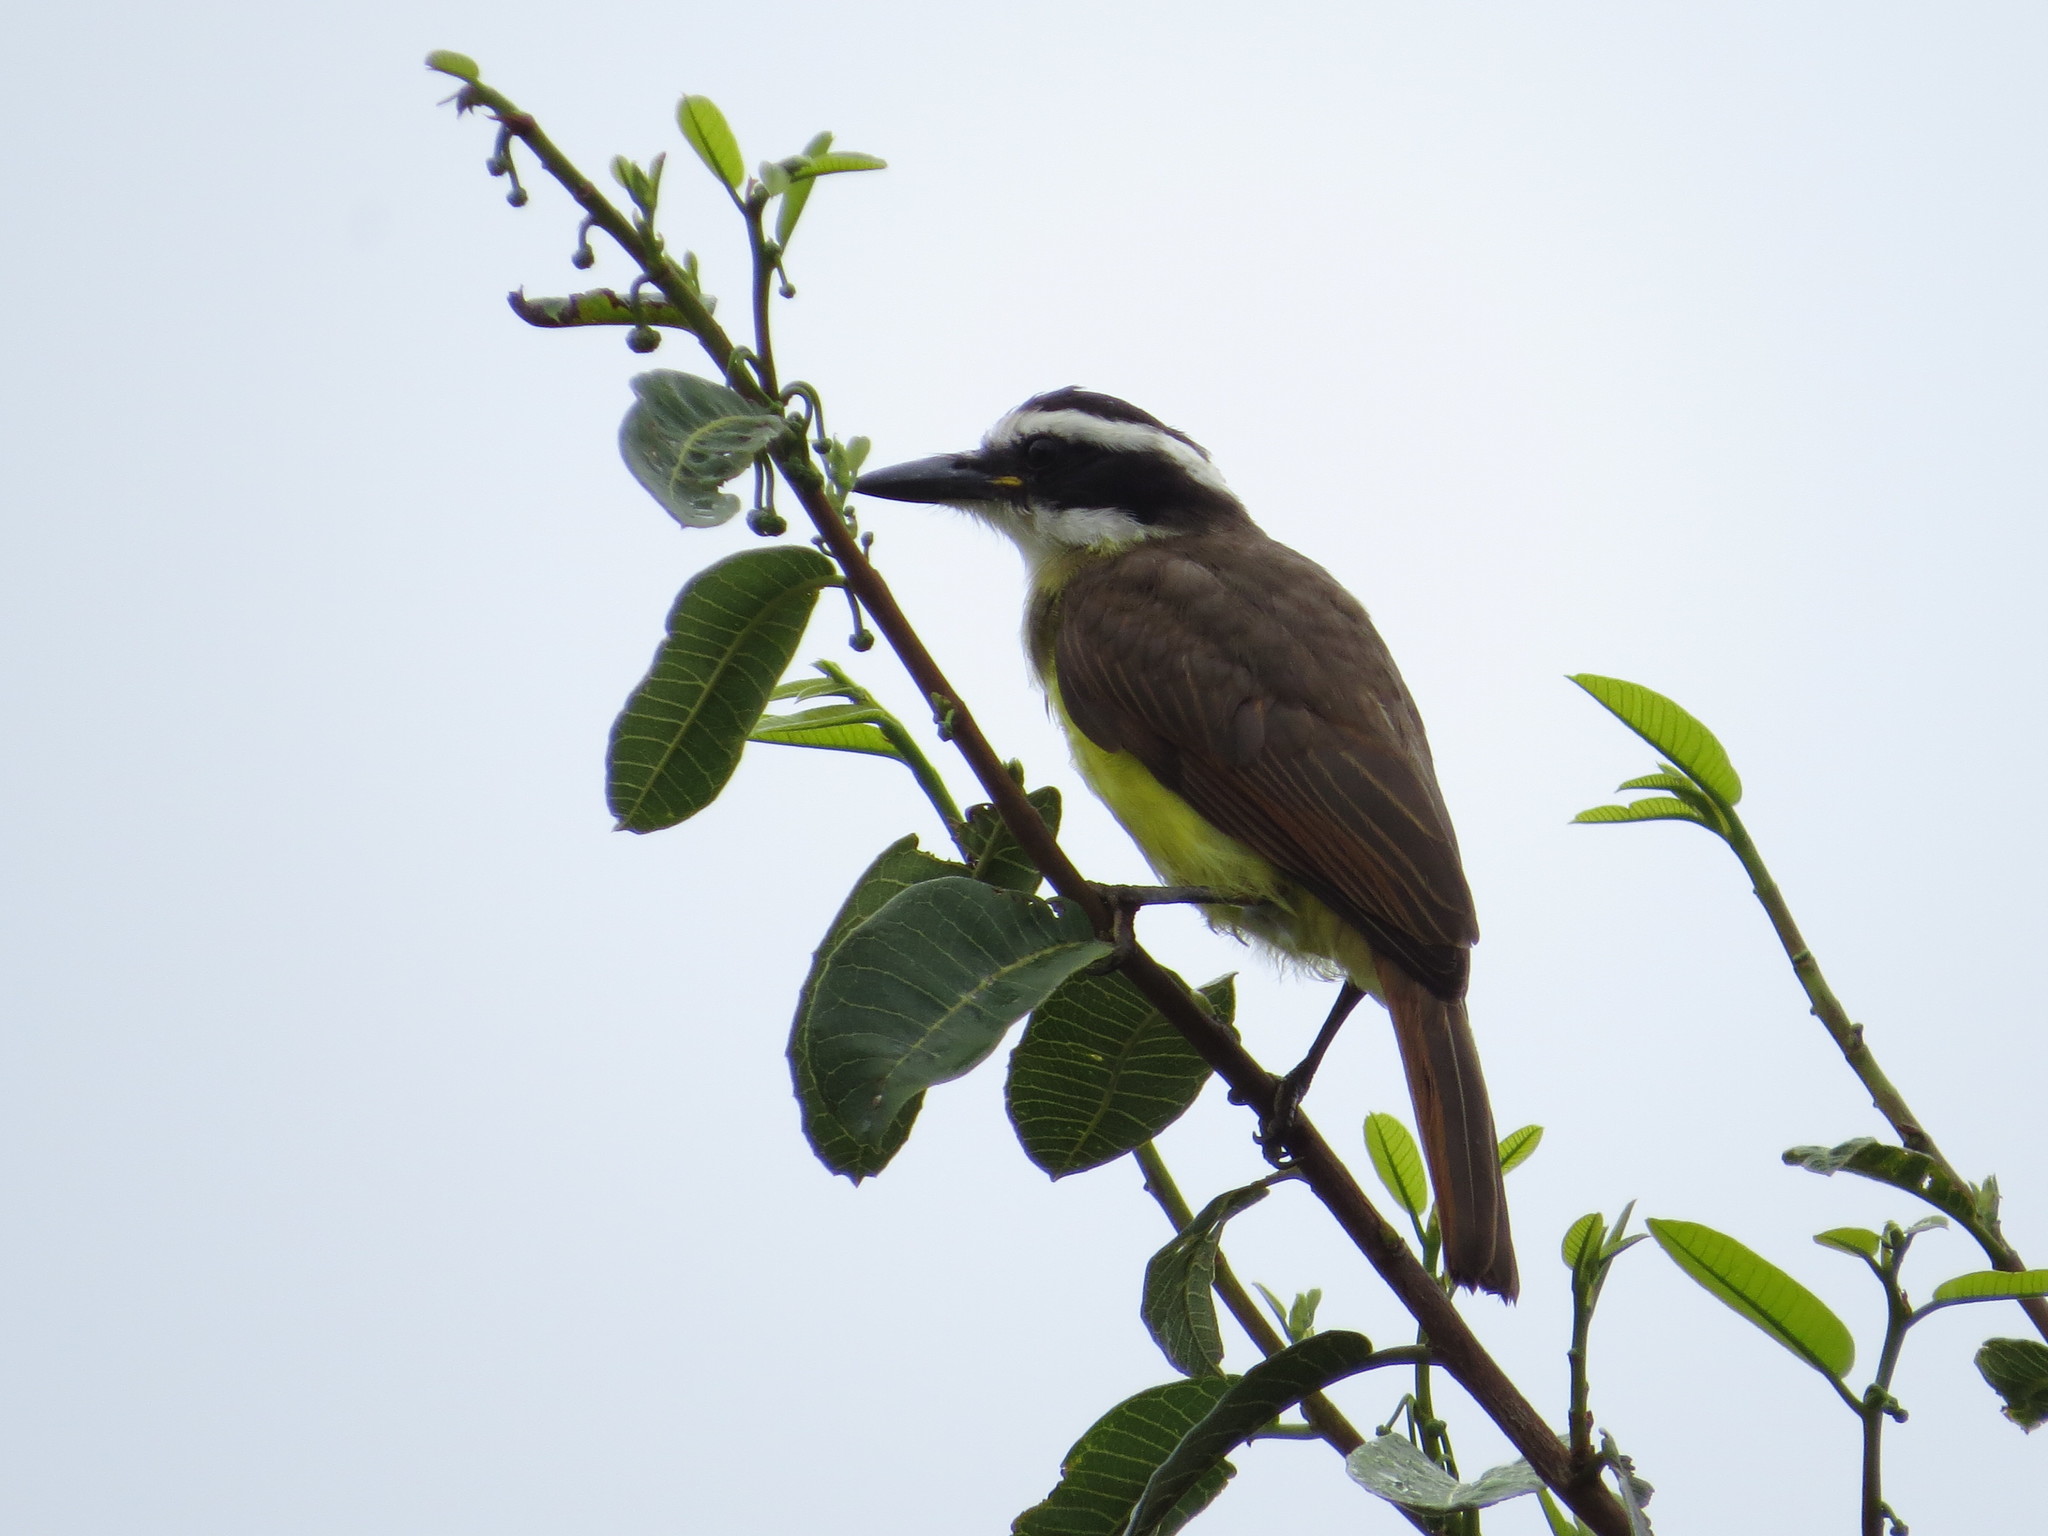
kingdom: Animalia
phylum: Chordata
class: Aves
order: Passeriformes
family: Tyrannidae
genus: Pitangus
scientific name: Pitangus sulphuratus
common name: Great kiskadee
